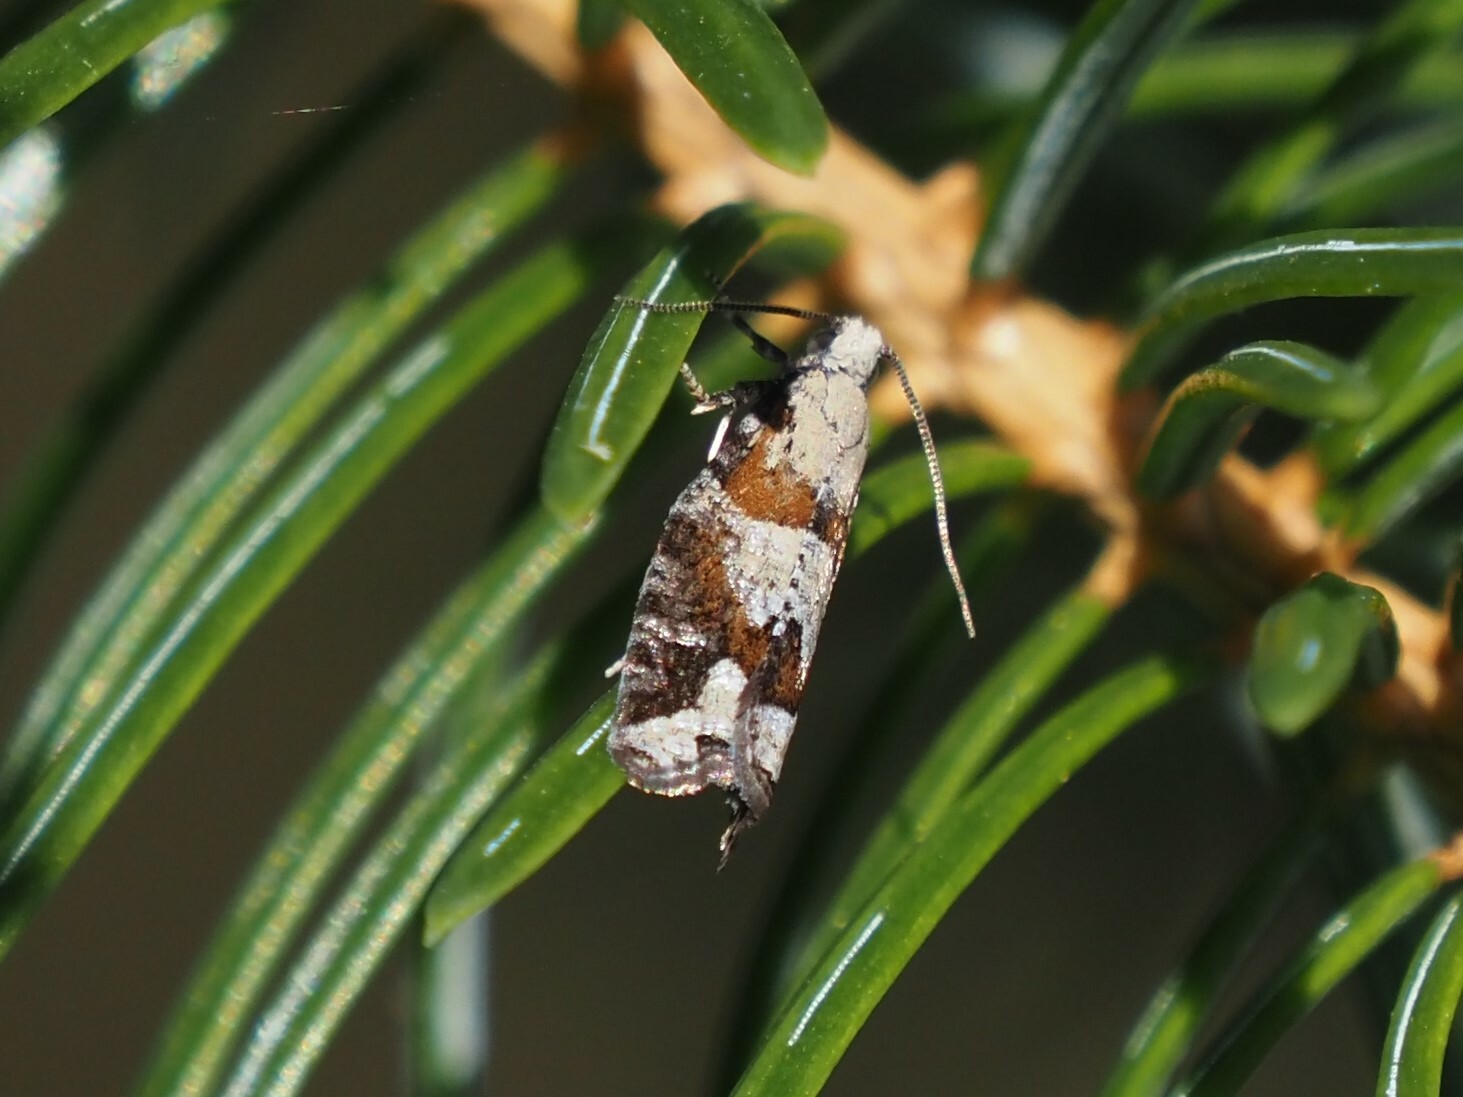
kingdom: Animalia
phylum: Arthropoda
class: Insecta
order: Lepidoptera
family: Tortricidae
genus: Epinotia
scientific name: Epinotia radicana
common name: Red-striped needleworm moth
